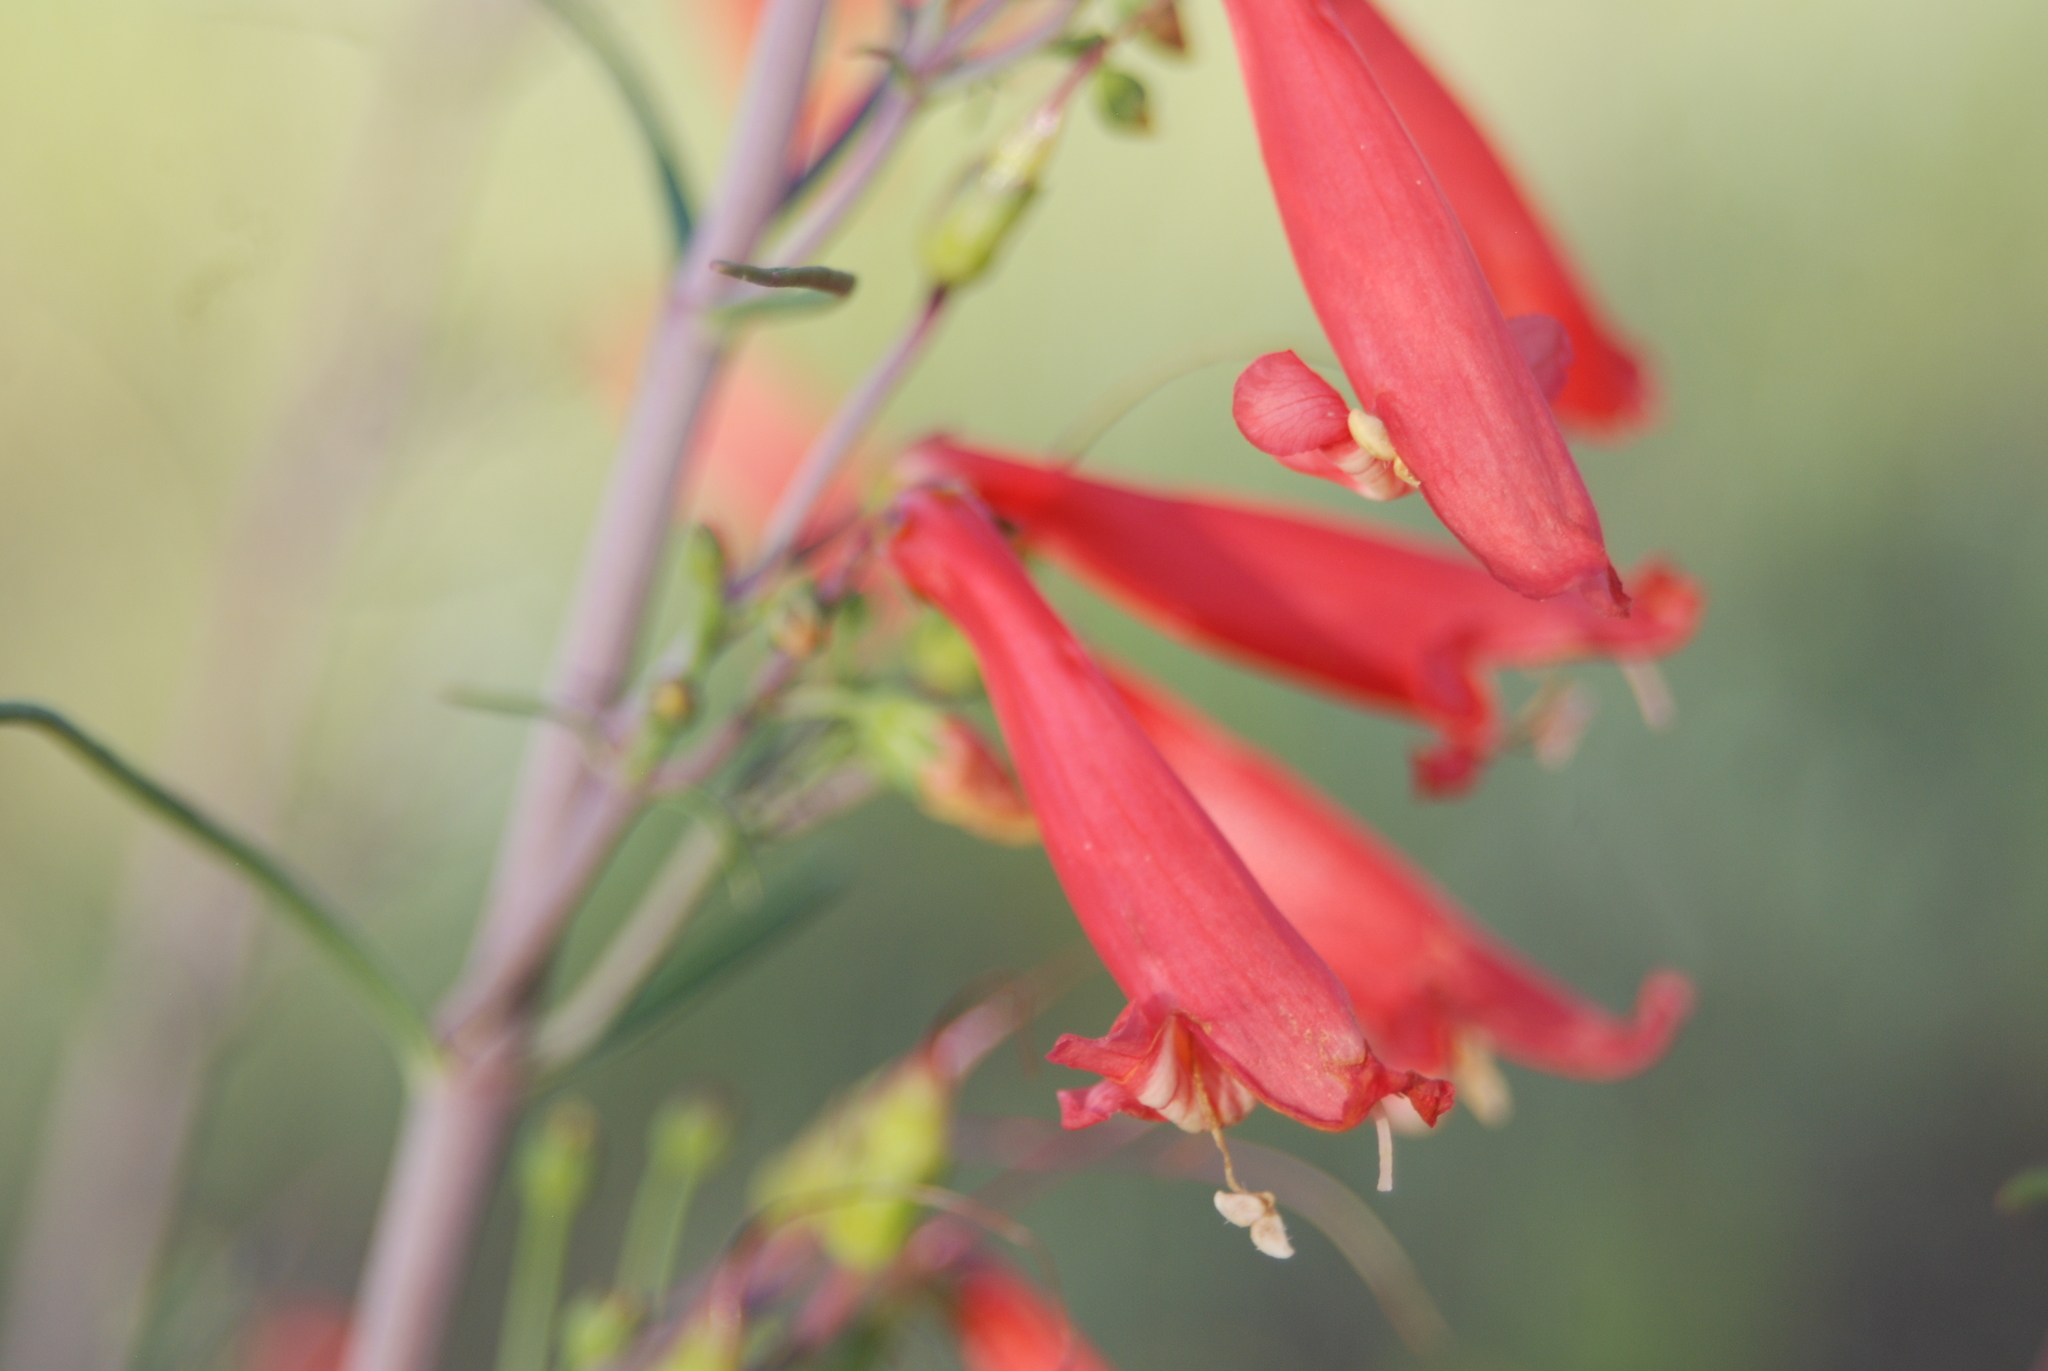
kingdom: Plantae
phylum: Tracheophyta
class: Magnoliopsida
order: Lamiales
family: Plantaginaceae
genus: Penstemon
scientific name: Penstemon barbatus
